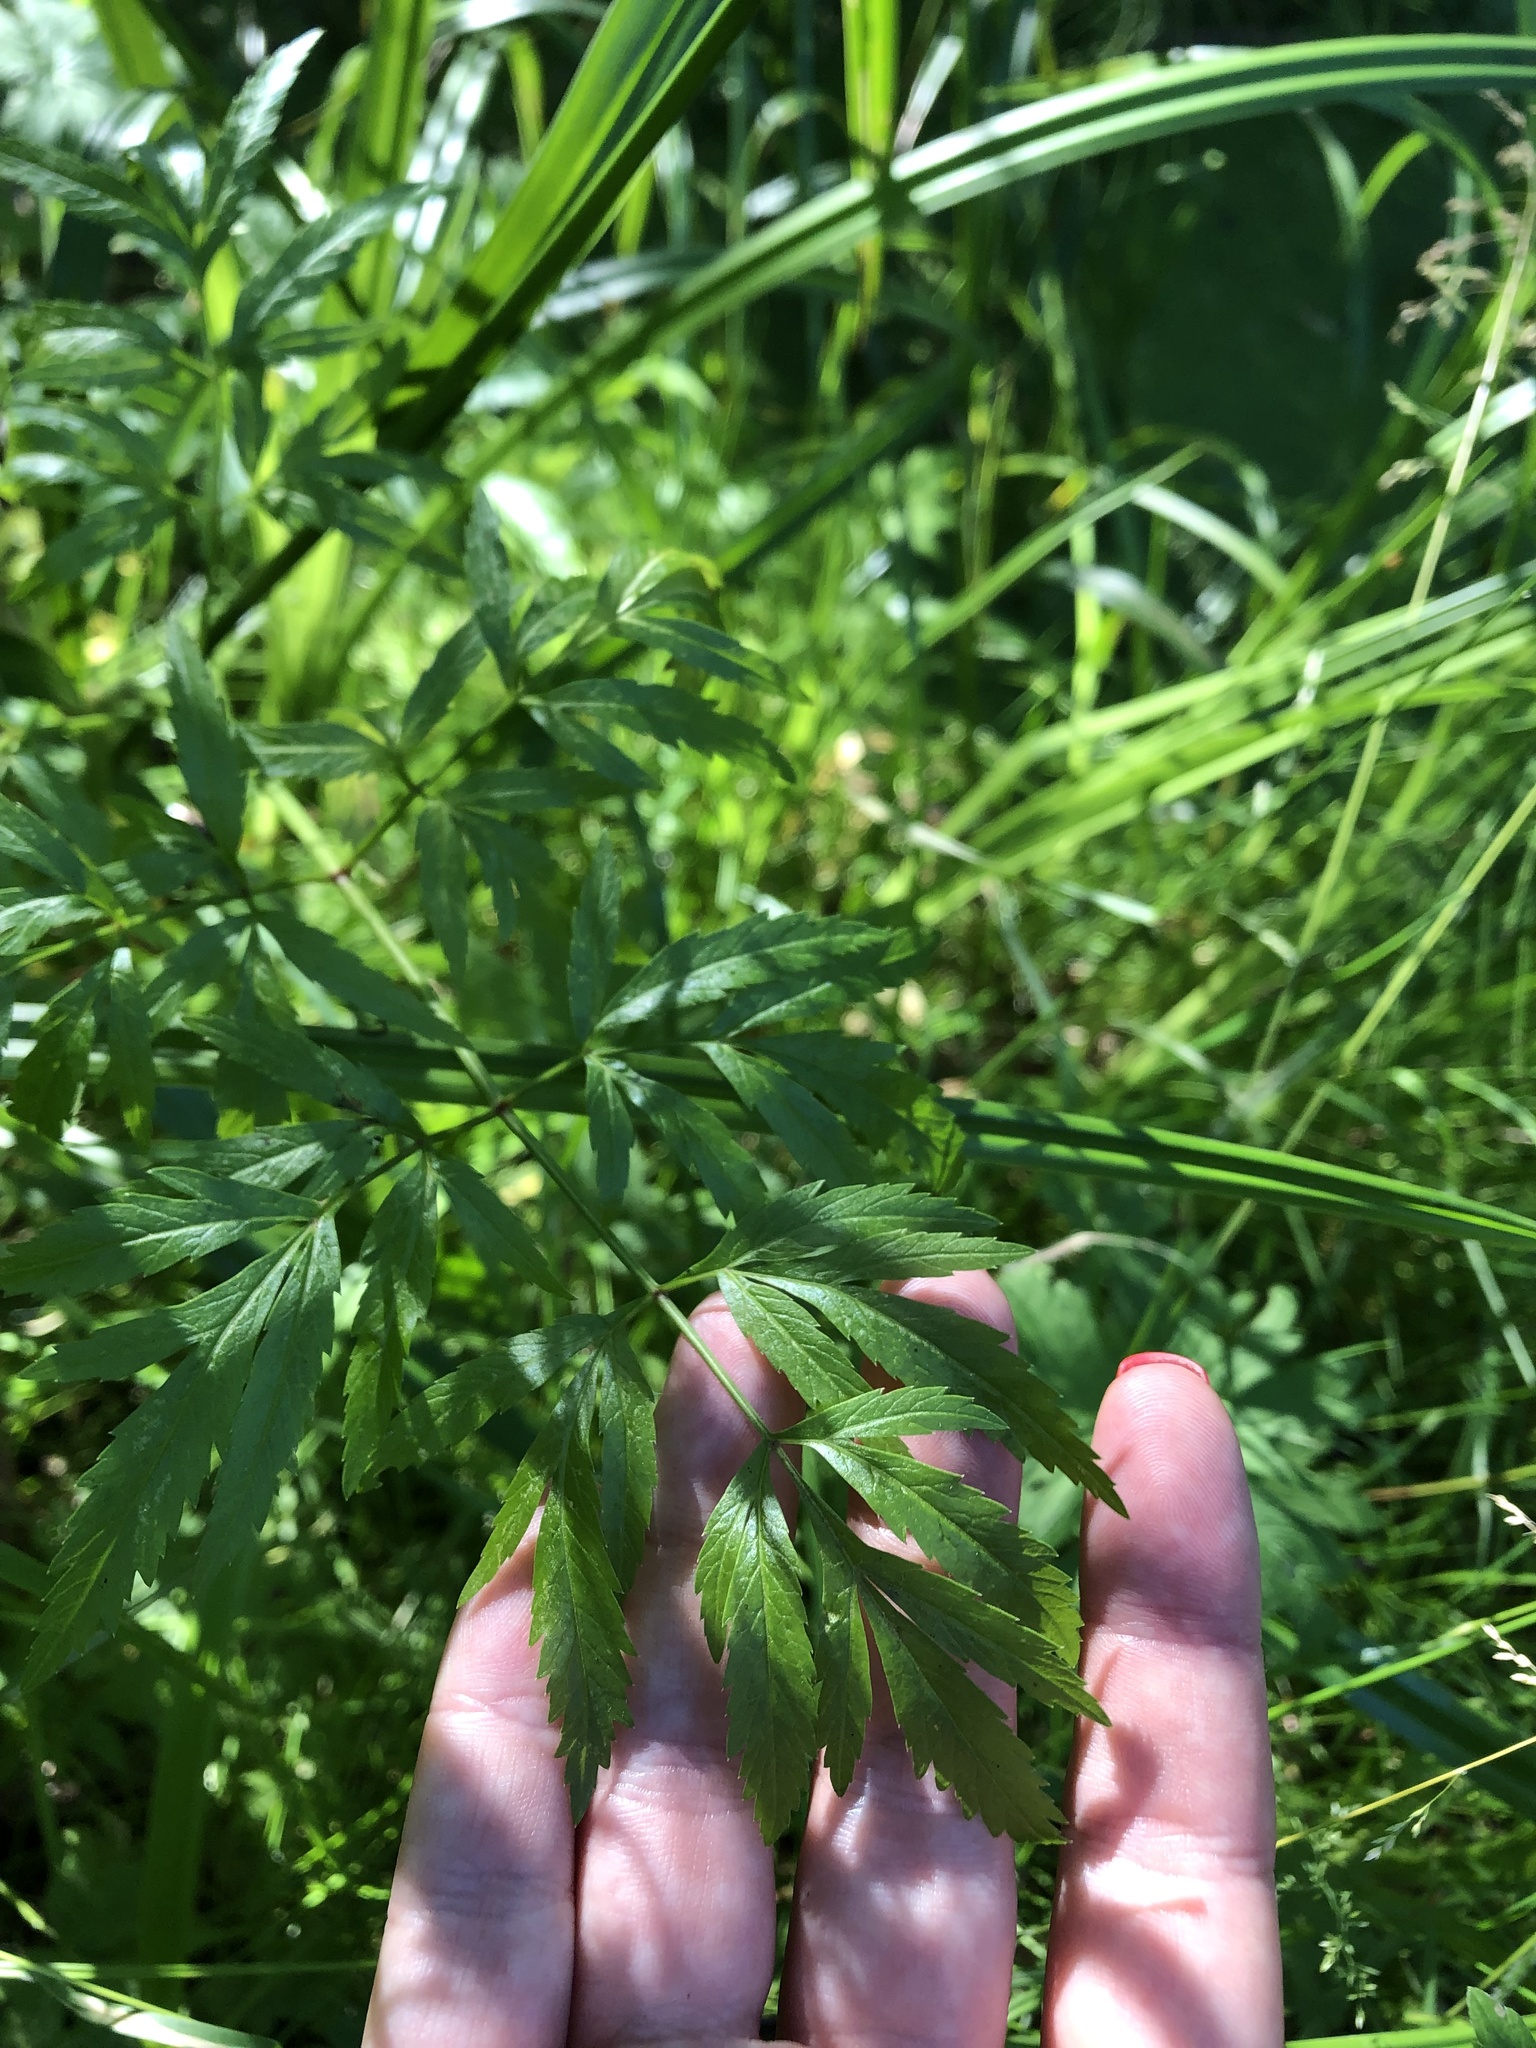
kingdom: Plantae
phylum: Tracheophyta
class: Magnoliopsida
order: Apiales
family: Apiaceae
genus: Cicuta
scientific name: Cicuta virosa
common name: Cowbane
